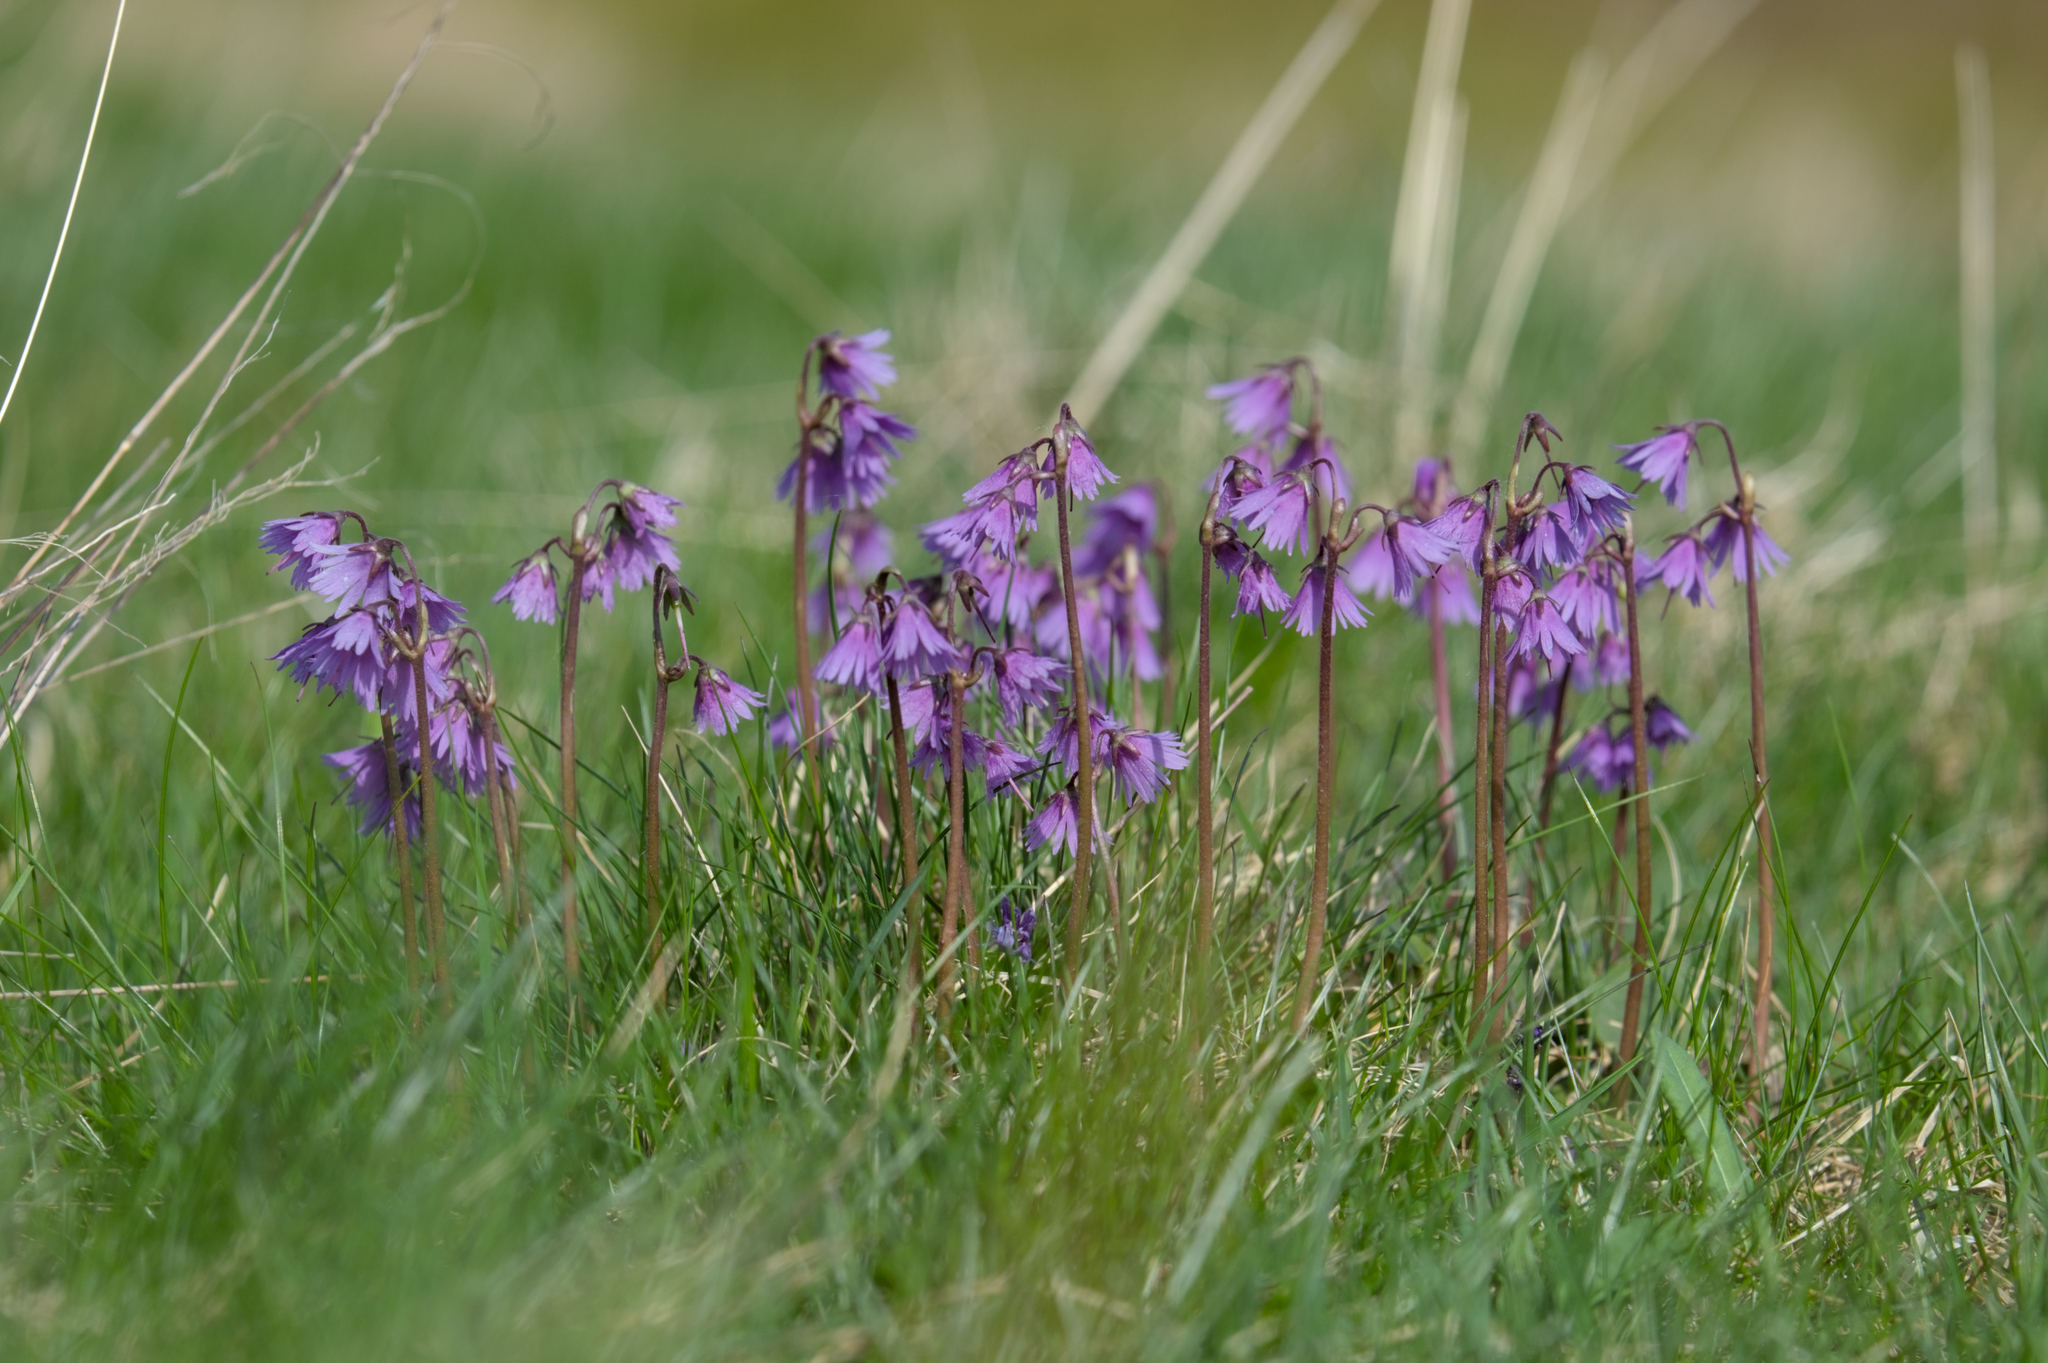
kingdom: Plantae
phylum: Tracheophyta
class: Magnoliopsida
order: Ericales
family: Primulaceae
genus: Soldanella
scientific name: Soldanella carpatica
